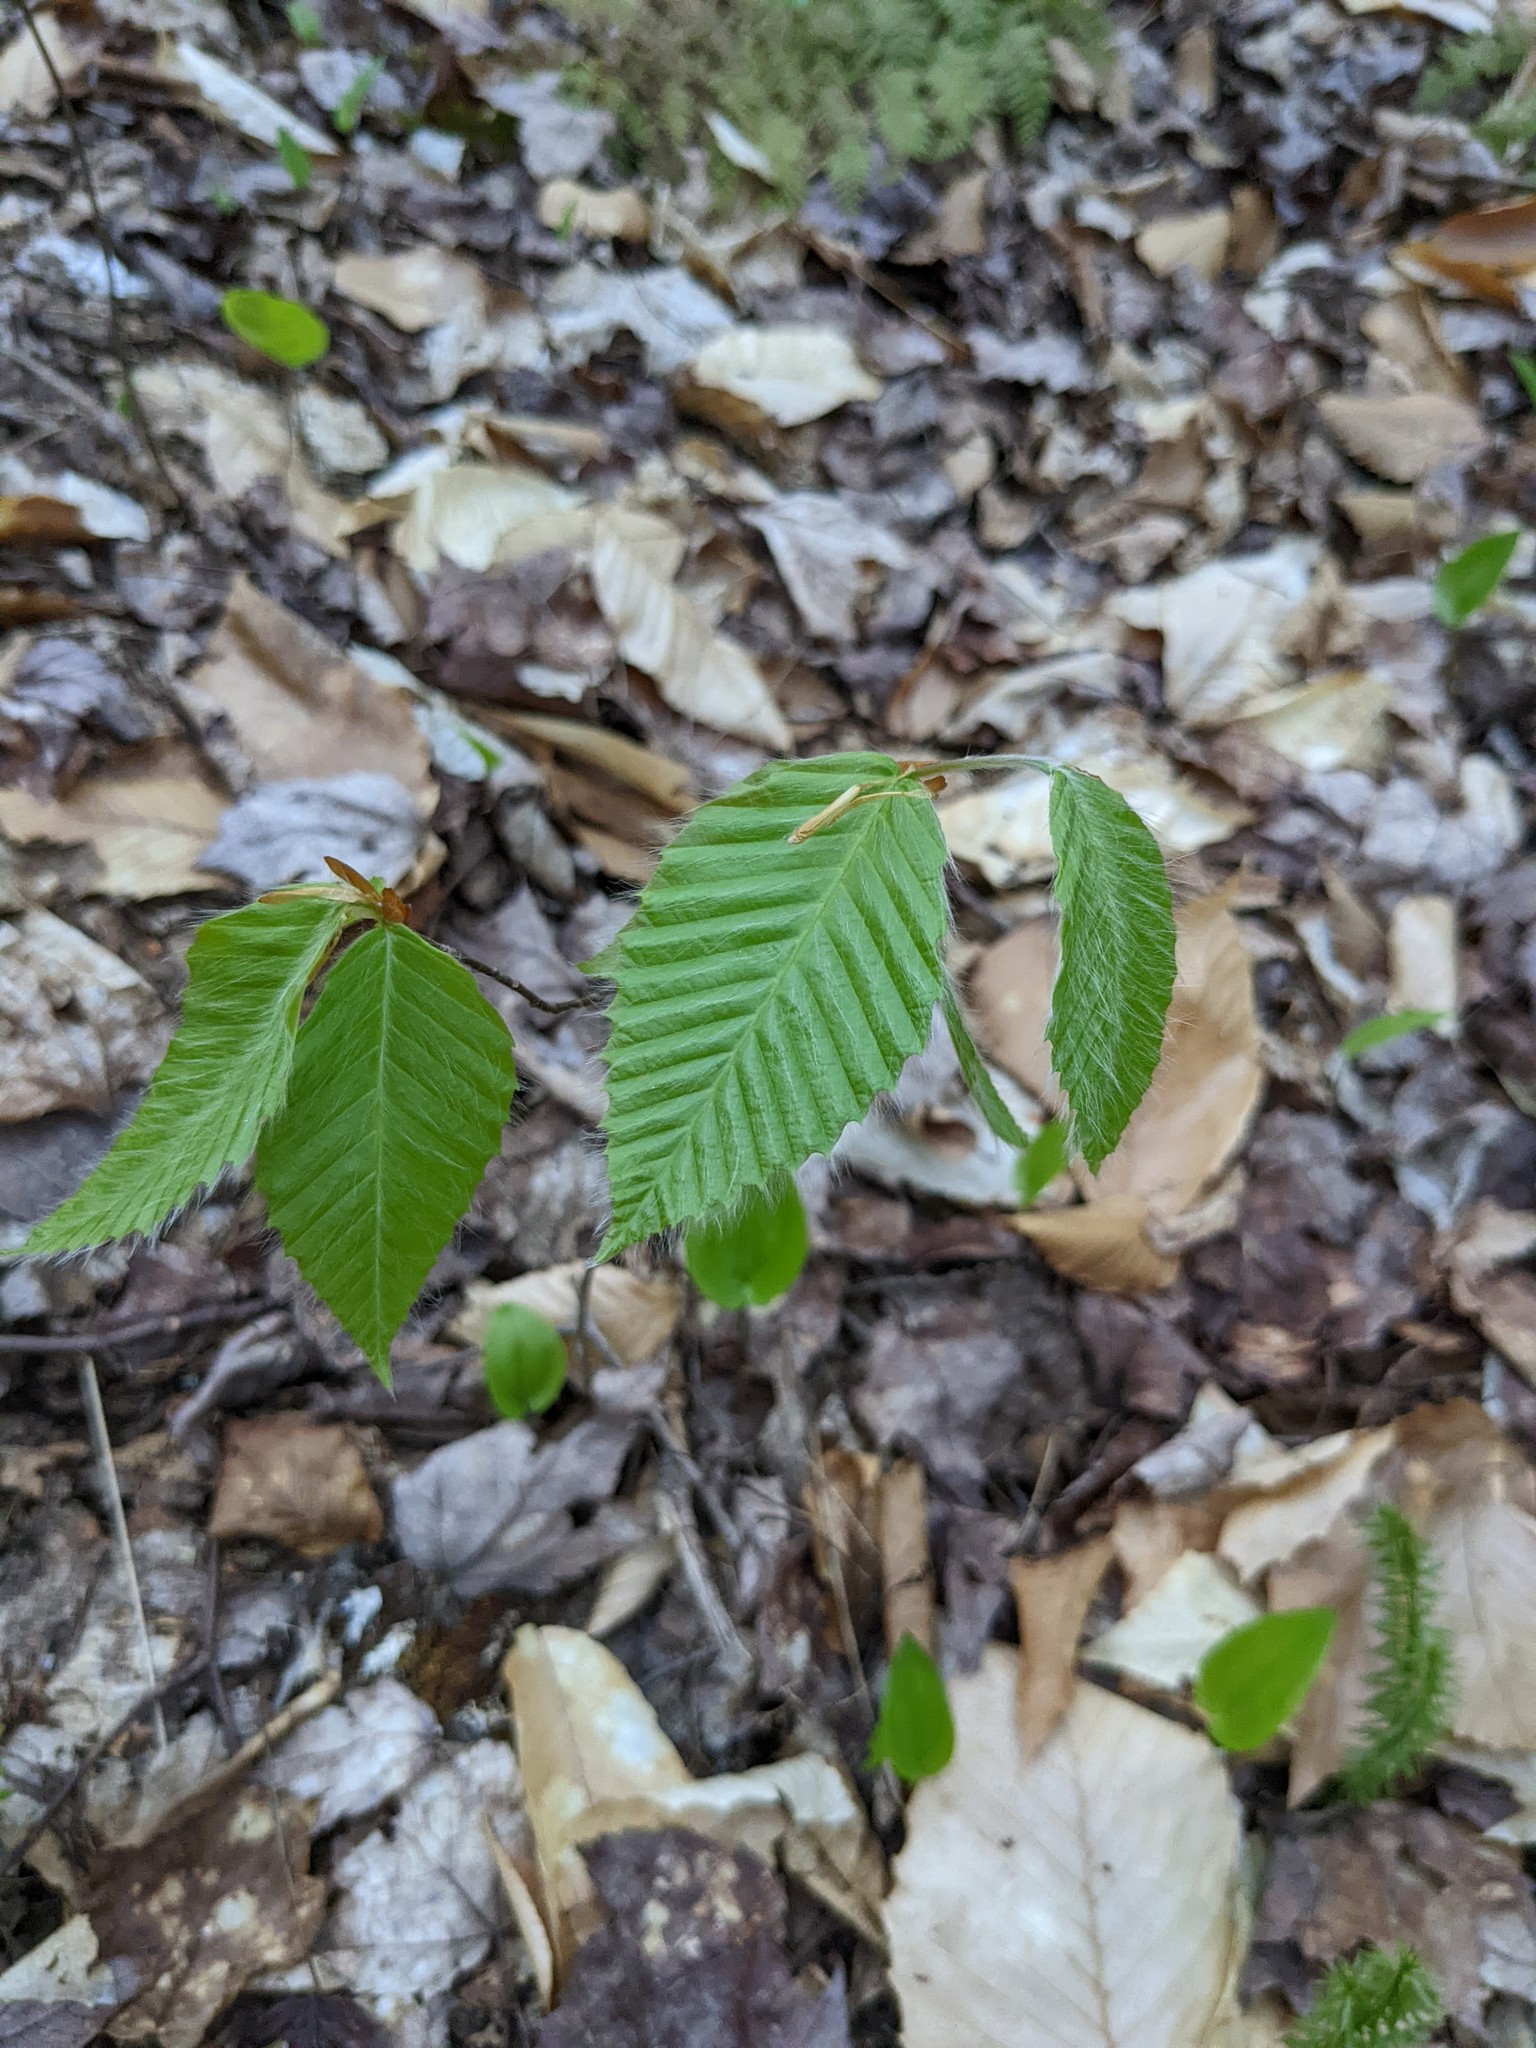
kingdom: Plantae
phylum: Tracheophyta
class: Magnoliopsida
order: Fagales
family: Fagaceae
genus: Fagus
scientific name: Fagus grandifolia
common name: American beech
